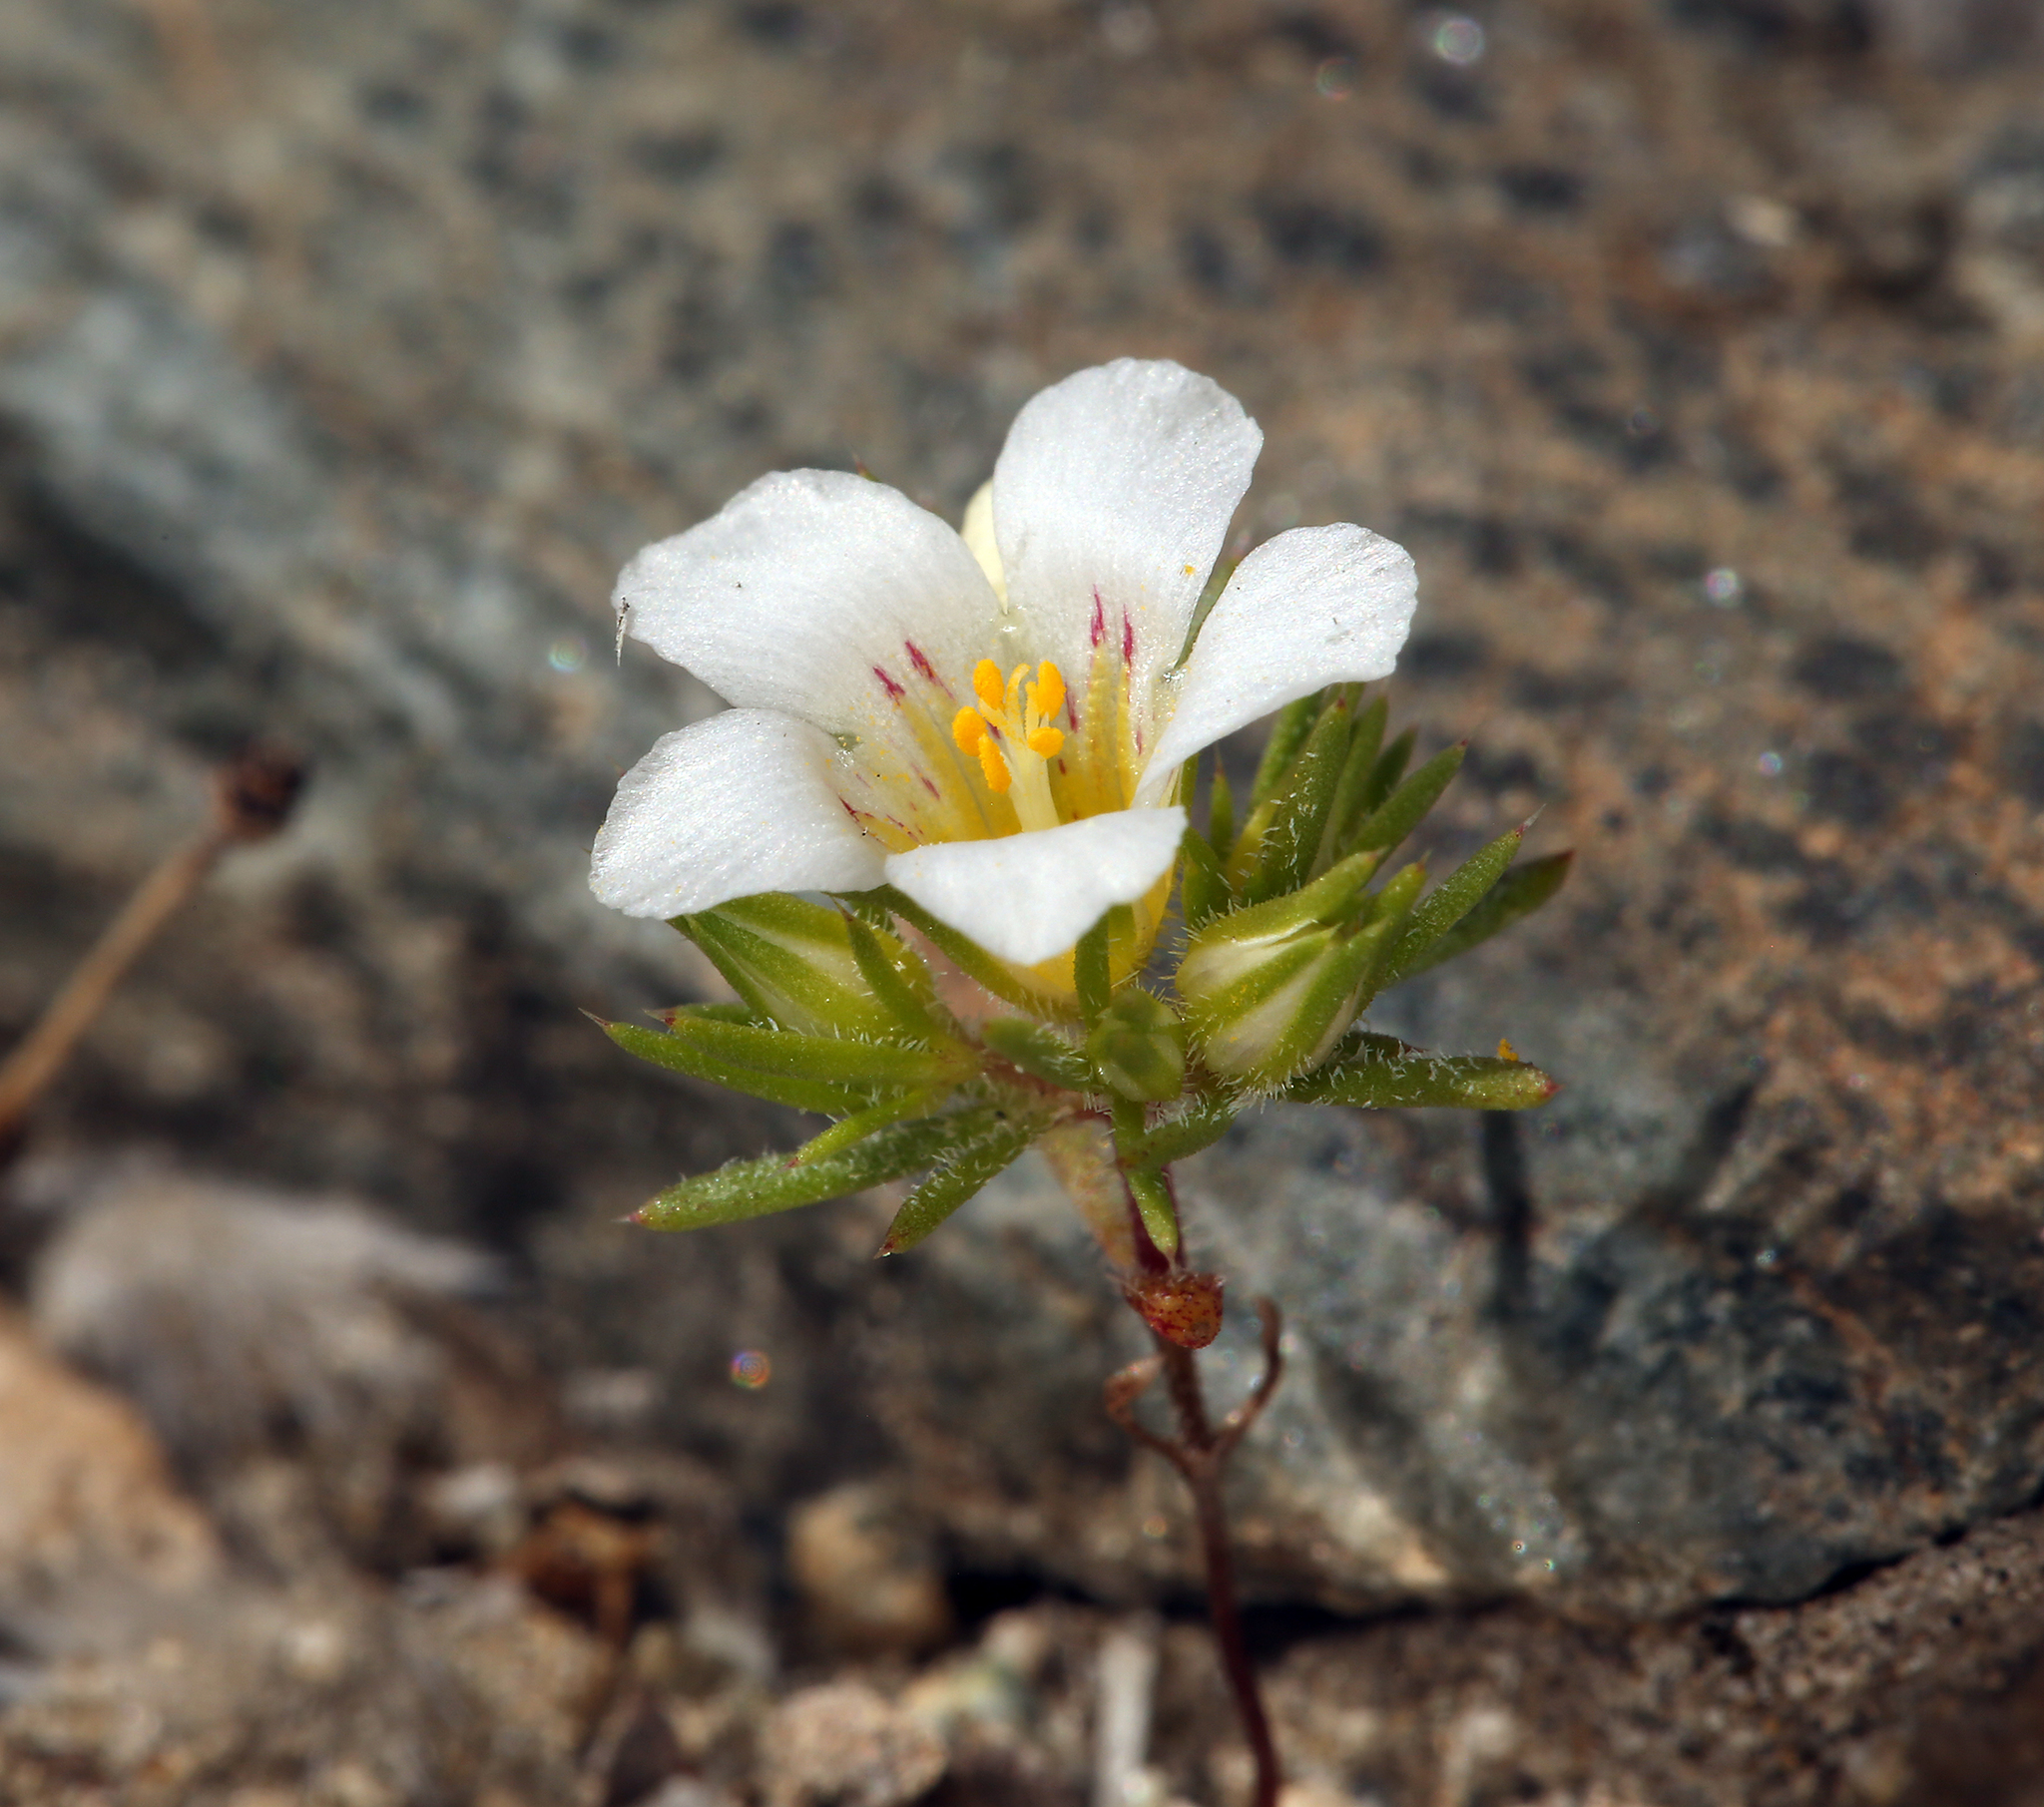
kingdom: Plantae
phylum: Tracheophyta
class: Magnoliopsida
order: Ericales
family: Polemoniaceae
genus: Linanthus
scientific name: Linanthus demissus
